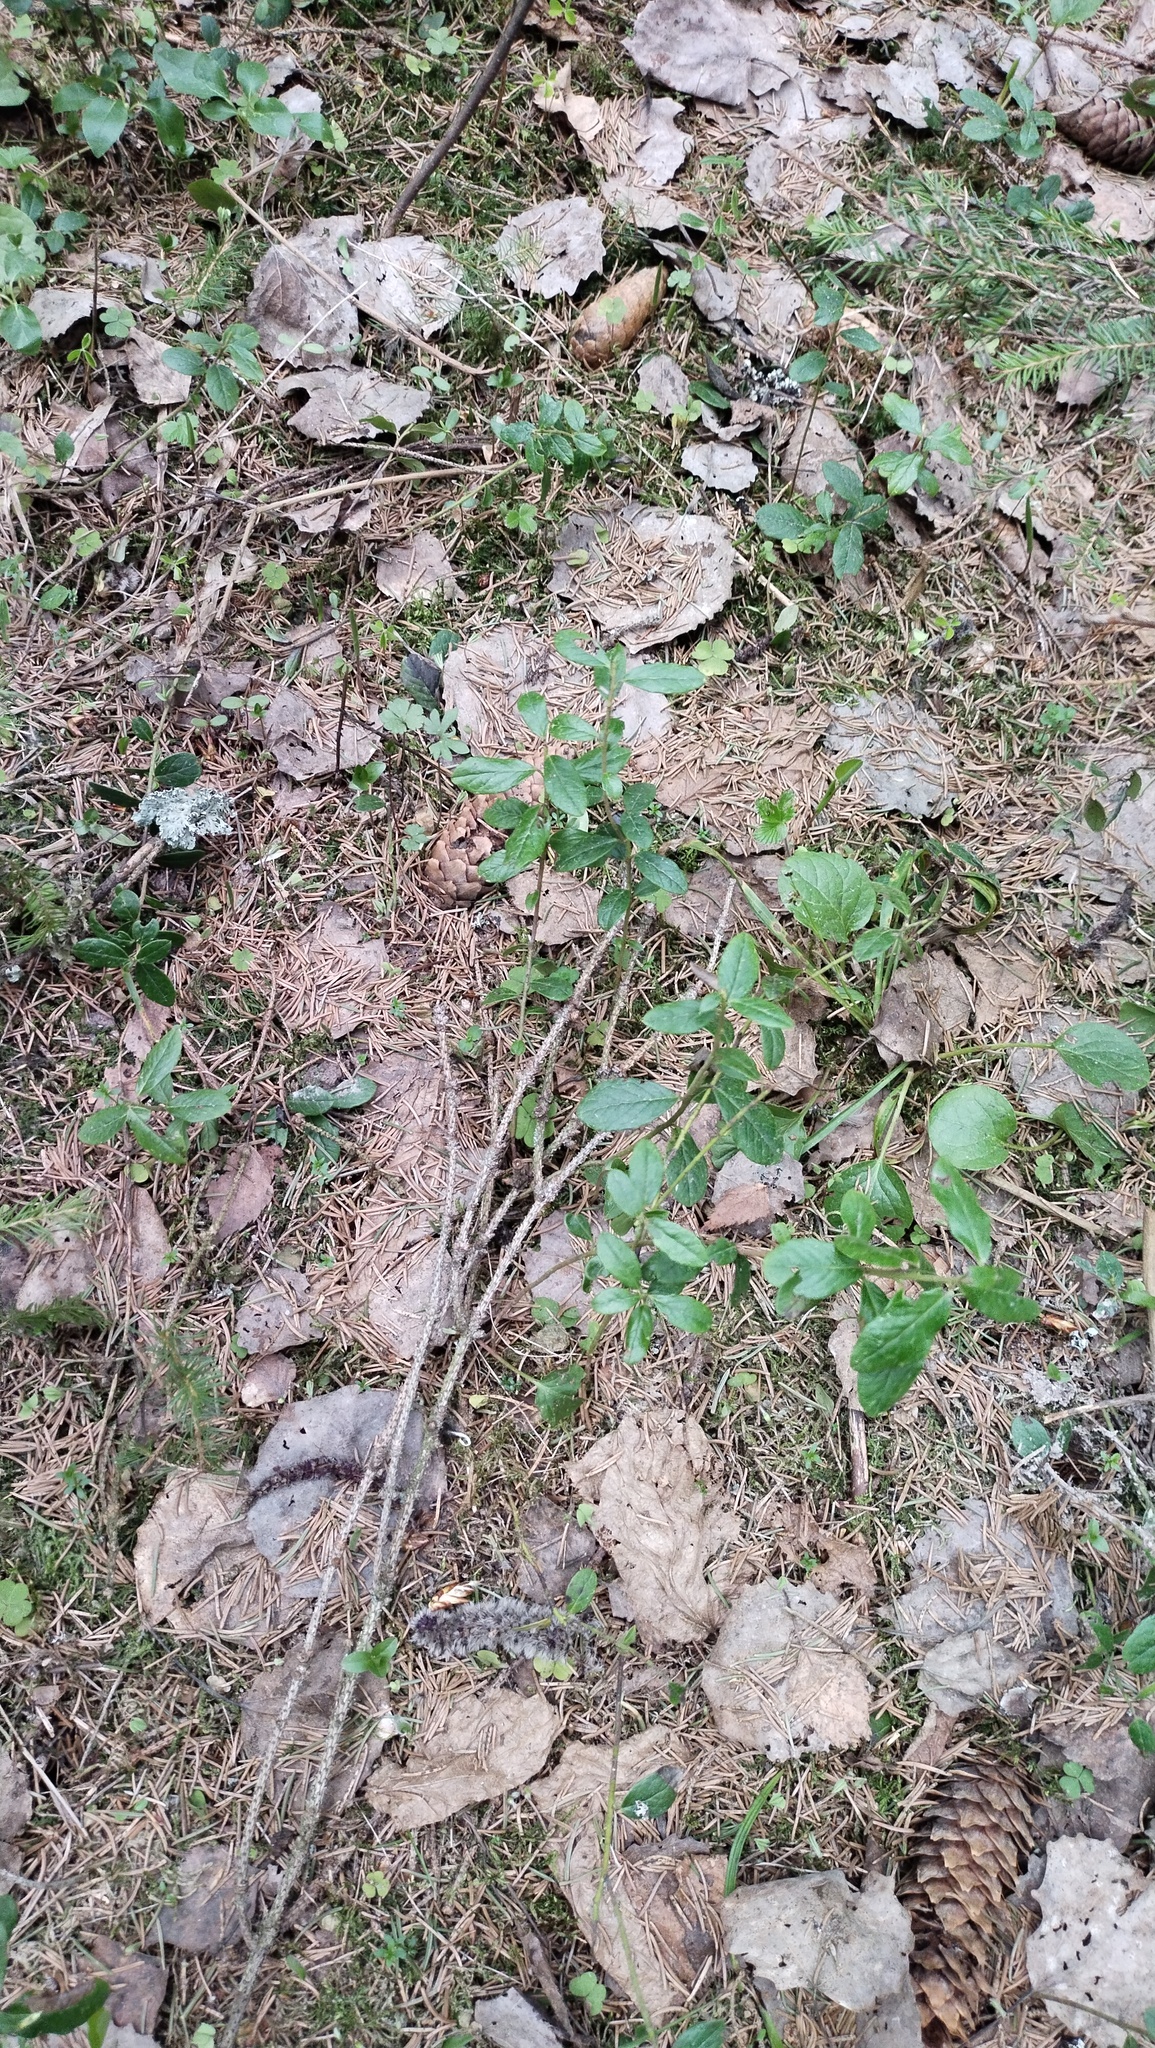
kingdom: Plantae
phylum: Tracheophyta
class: Magnoliopsida
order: Ericales
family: Ericaceae
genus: Vaccinium
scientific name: Vaccinium myrtillus
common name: Bilberry
